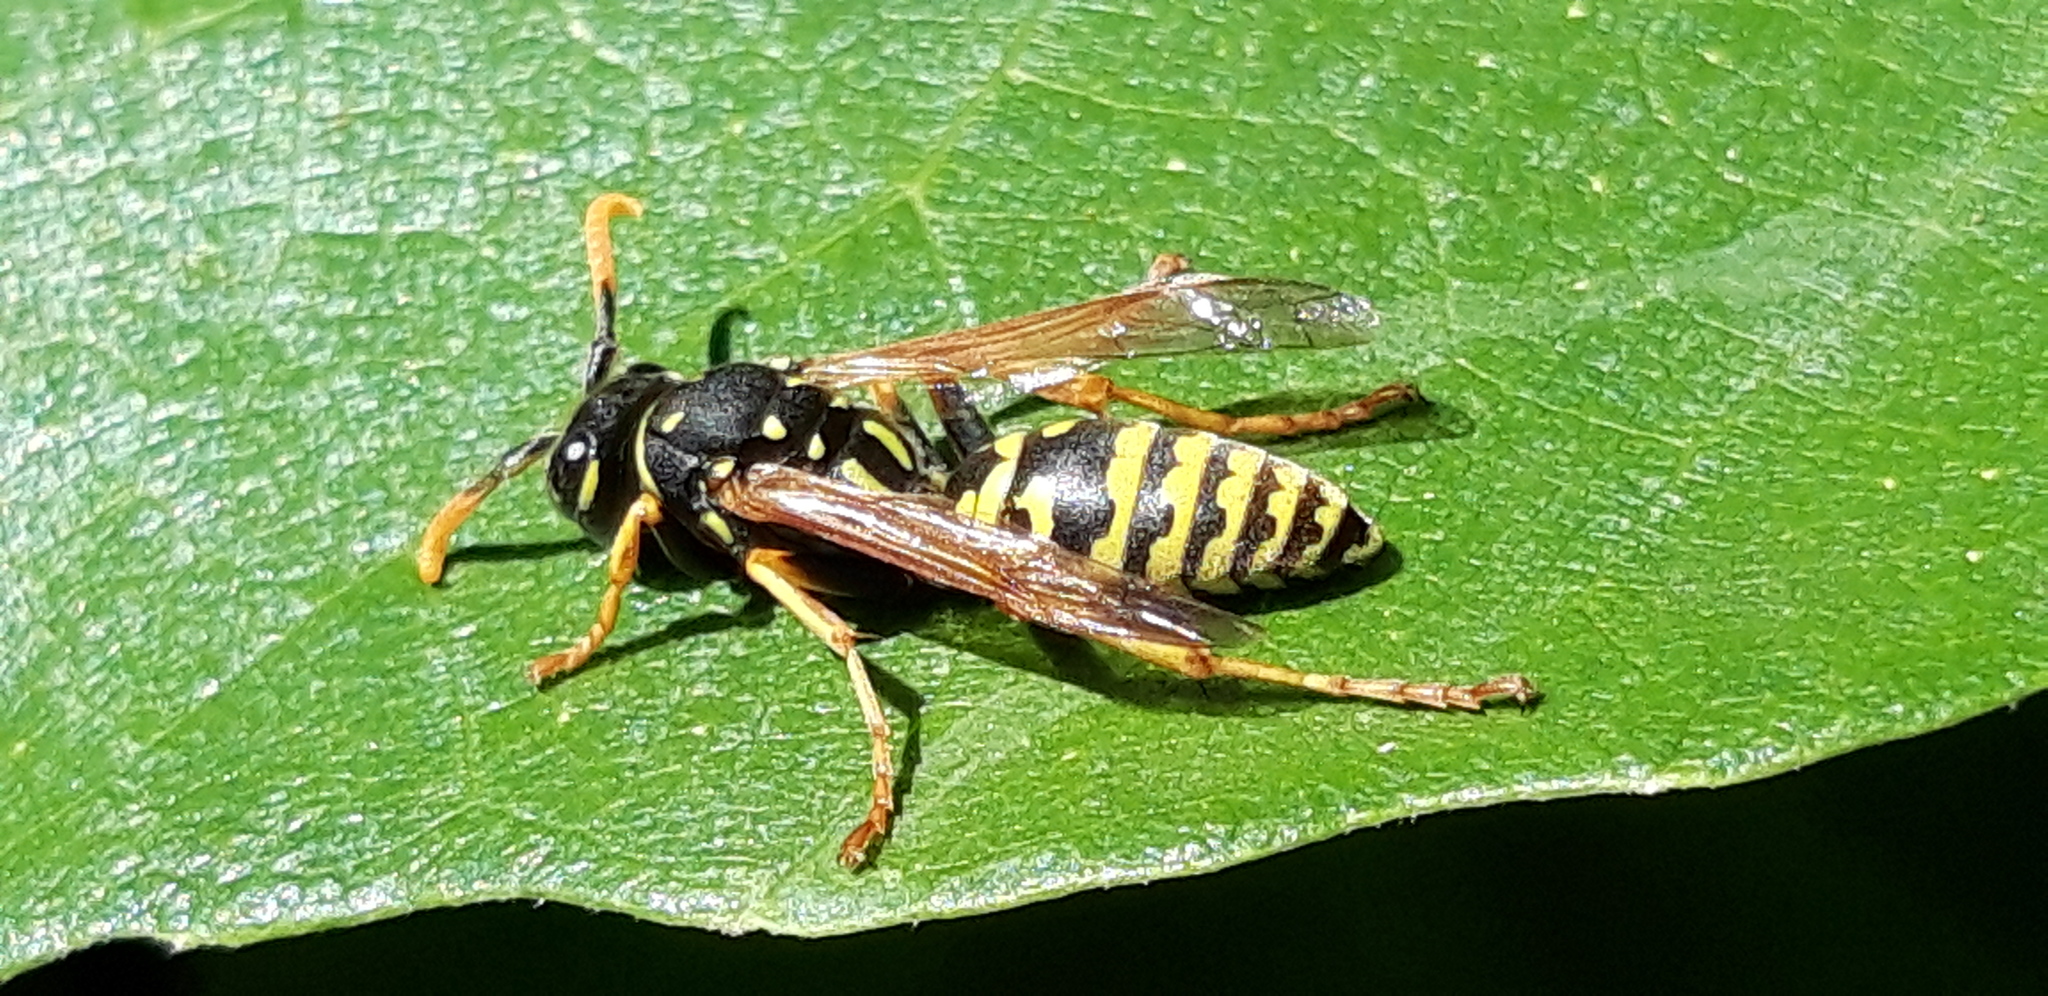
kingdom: Animalia
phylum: Arthropoda
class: Insecta
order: Hymenoptera
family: Eumenidae
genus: Polistes
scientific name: Polistes dominula
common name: Paper wasp
